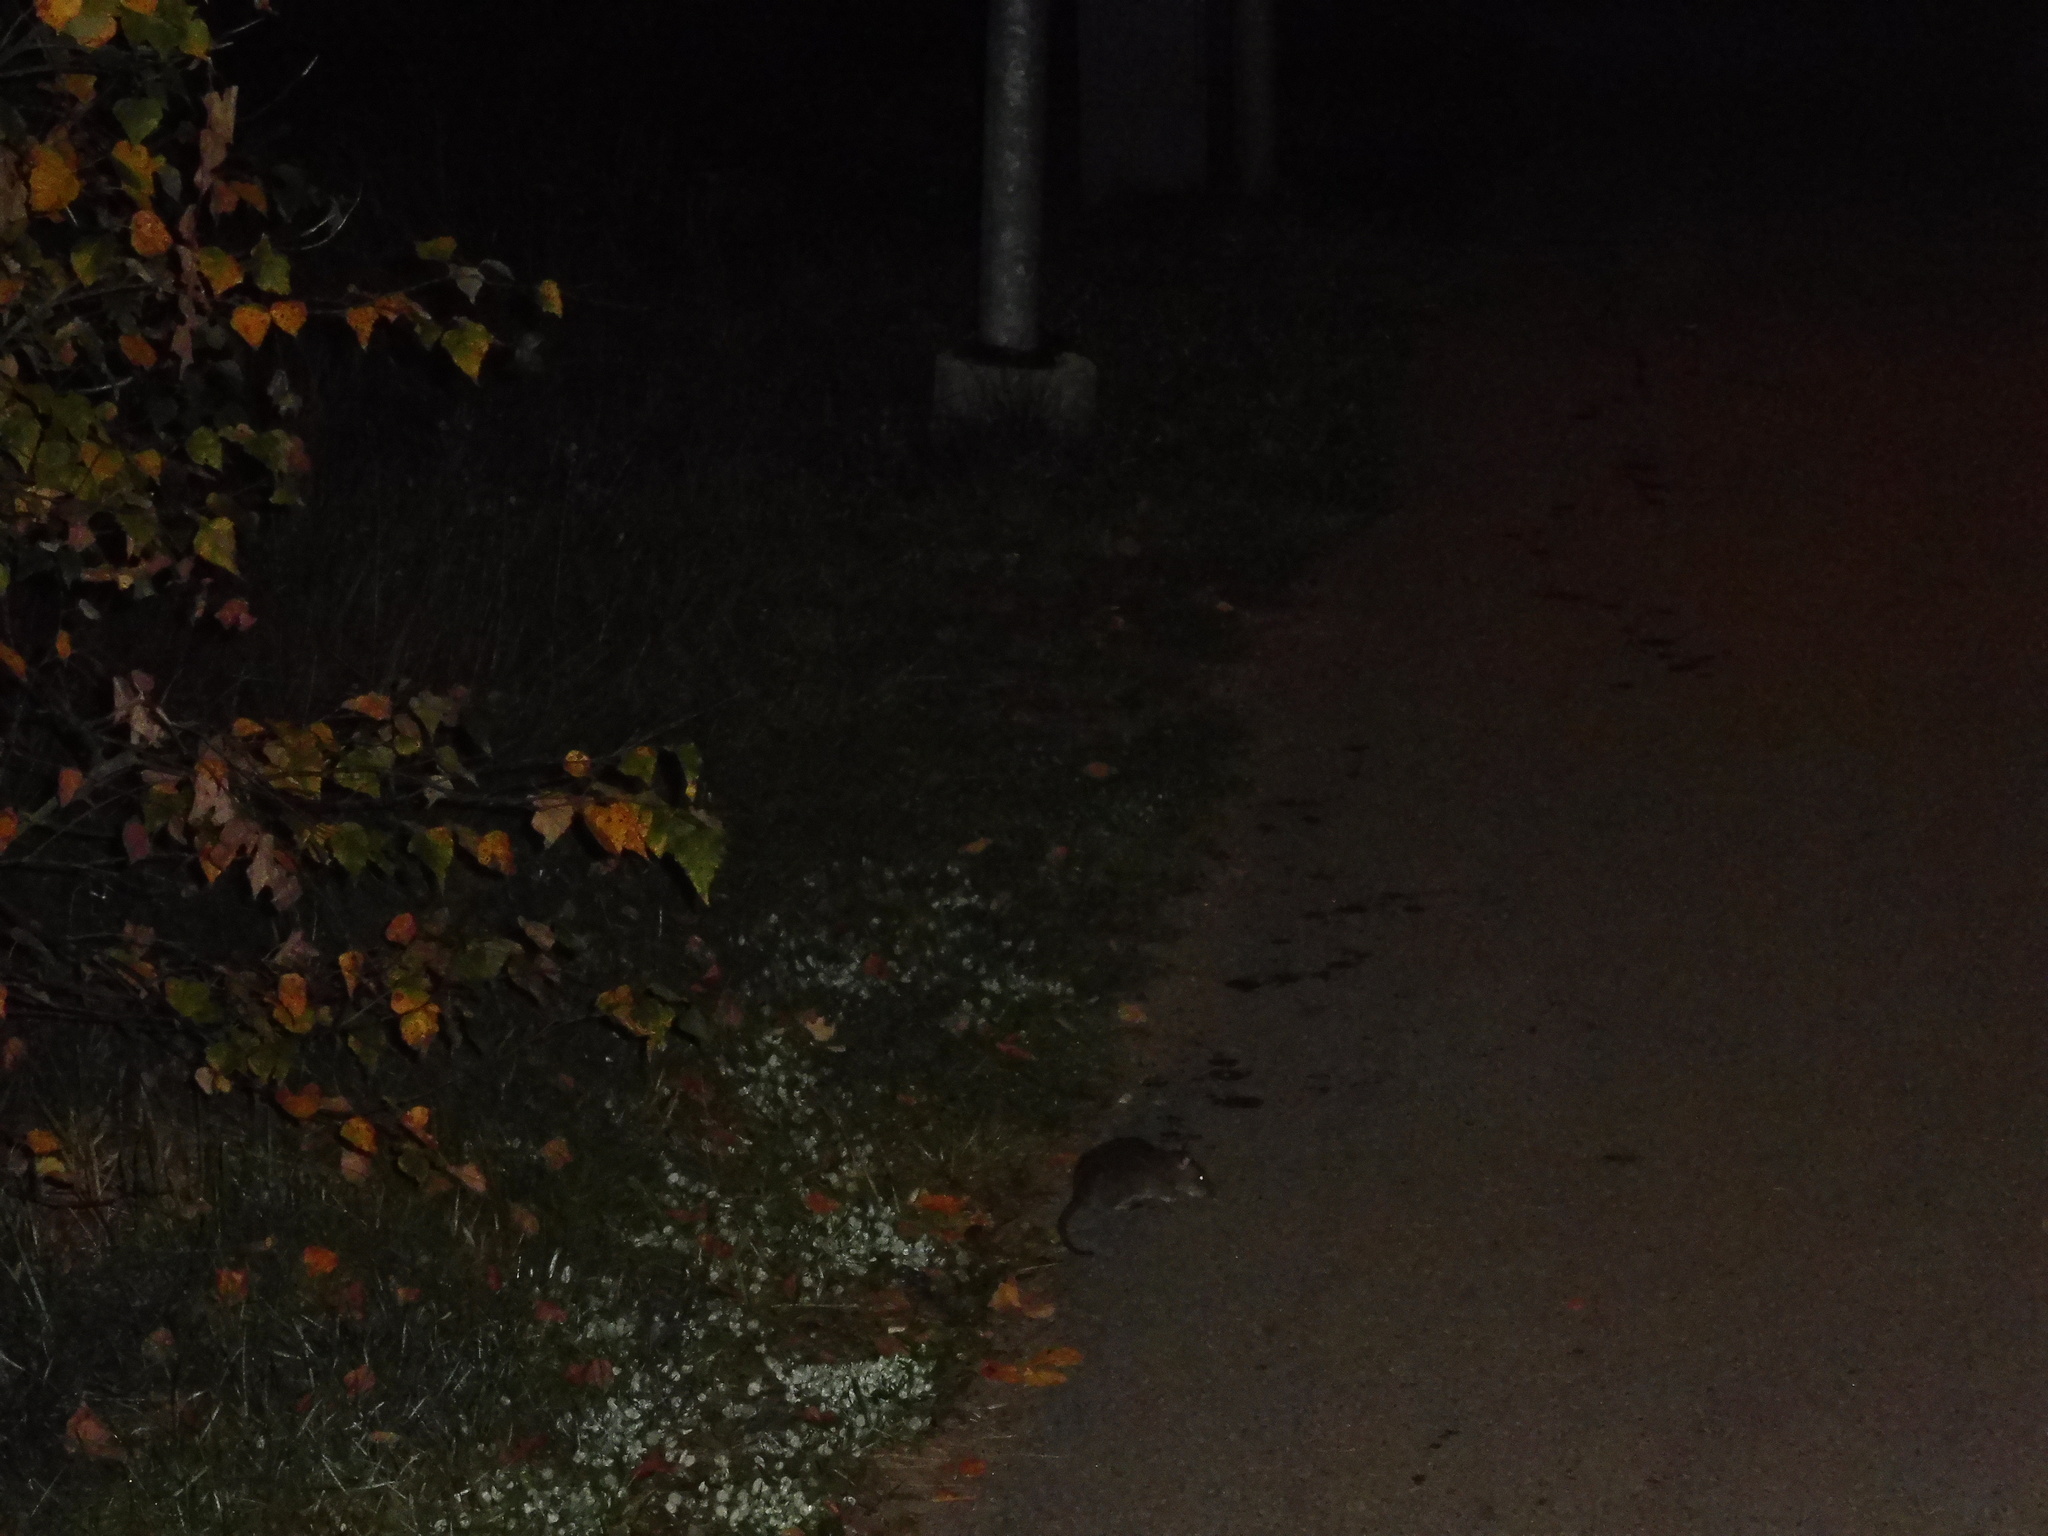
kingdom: Animalia
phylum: Chordata
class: Mammalia
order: Rodentia
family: Muridae
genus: Rattus
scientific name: Rattus norvegicus
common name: Brown rat
